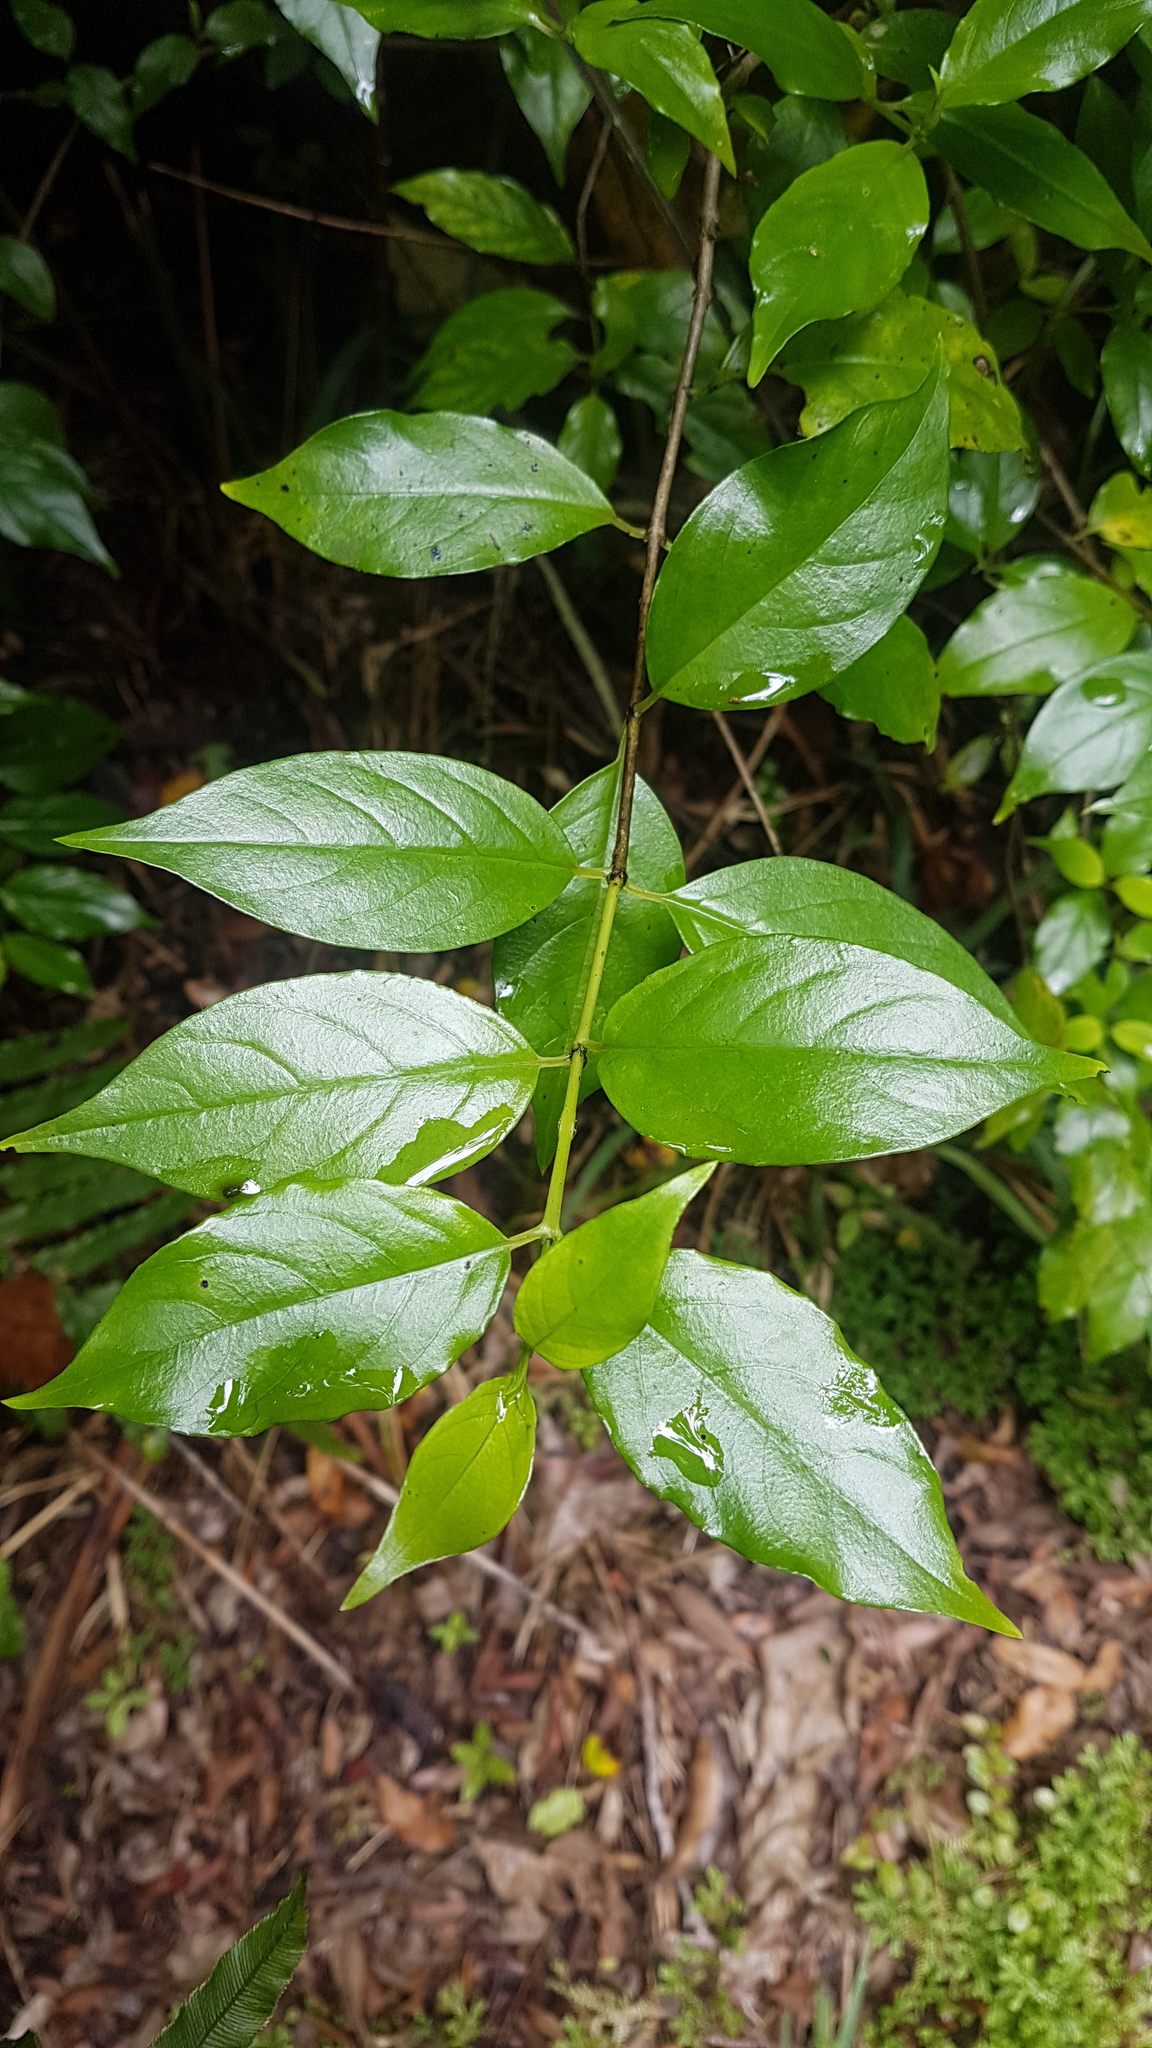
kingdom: Plantae
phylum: Tracheophyta
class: Magnoliopsida
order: Gentianales
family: Loganiaceae
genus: Geniostoma
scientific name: Geniostoma ligustrifolium
